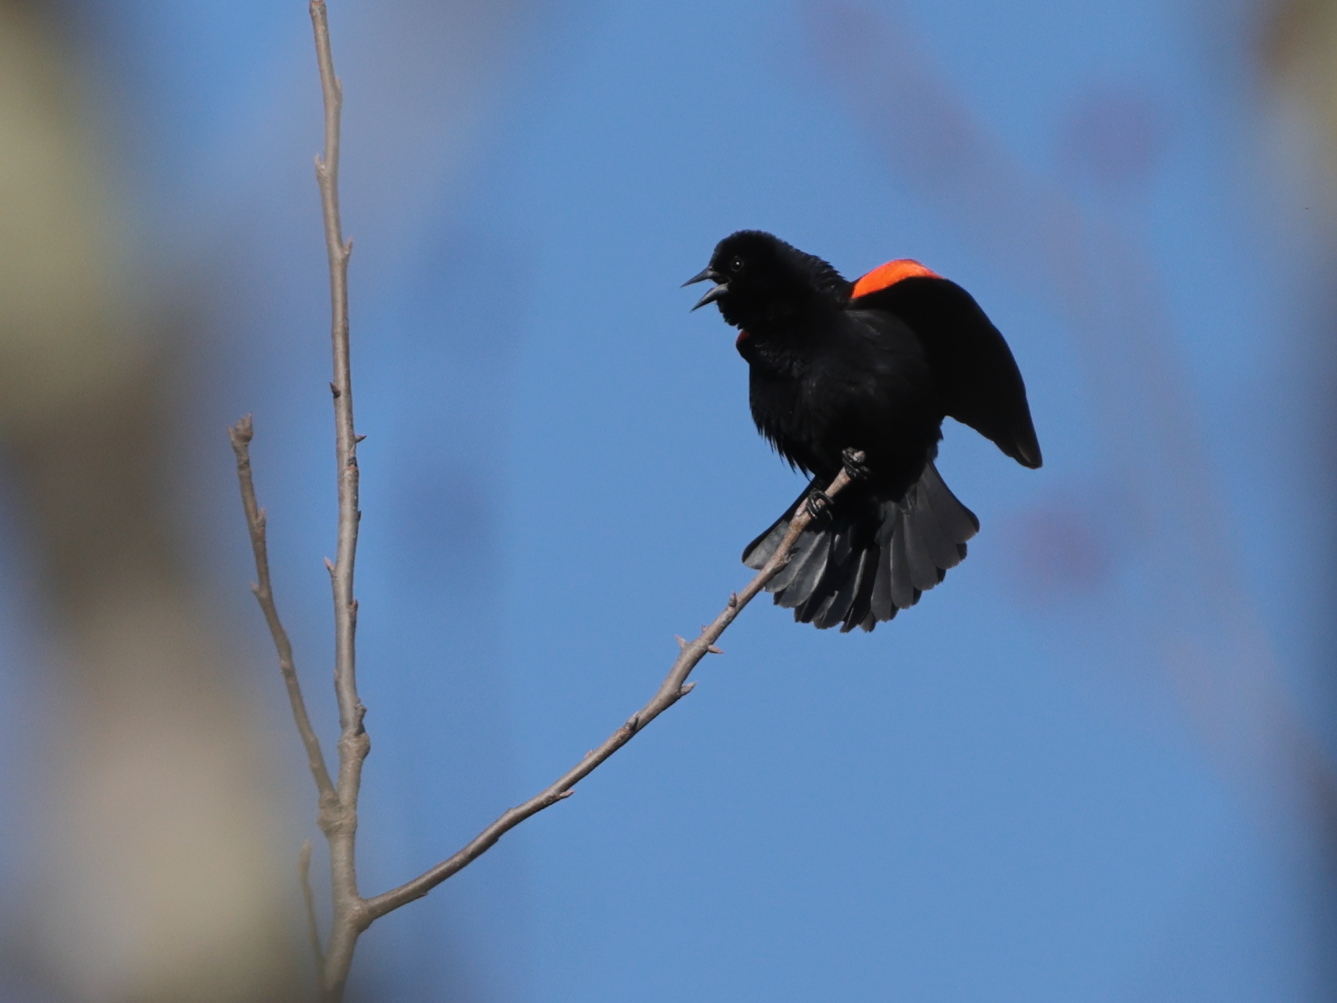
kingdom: Animalia
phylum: Chordata
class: Aves
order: Passeriformes
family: Icteridae
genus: Agelaius
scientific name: Agelaius phoeniceus
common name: Red-winged blackbird
